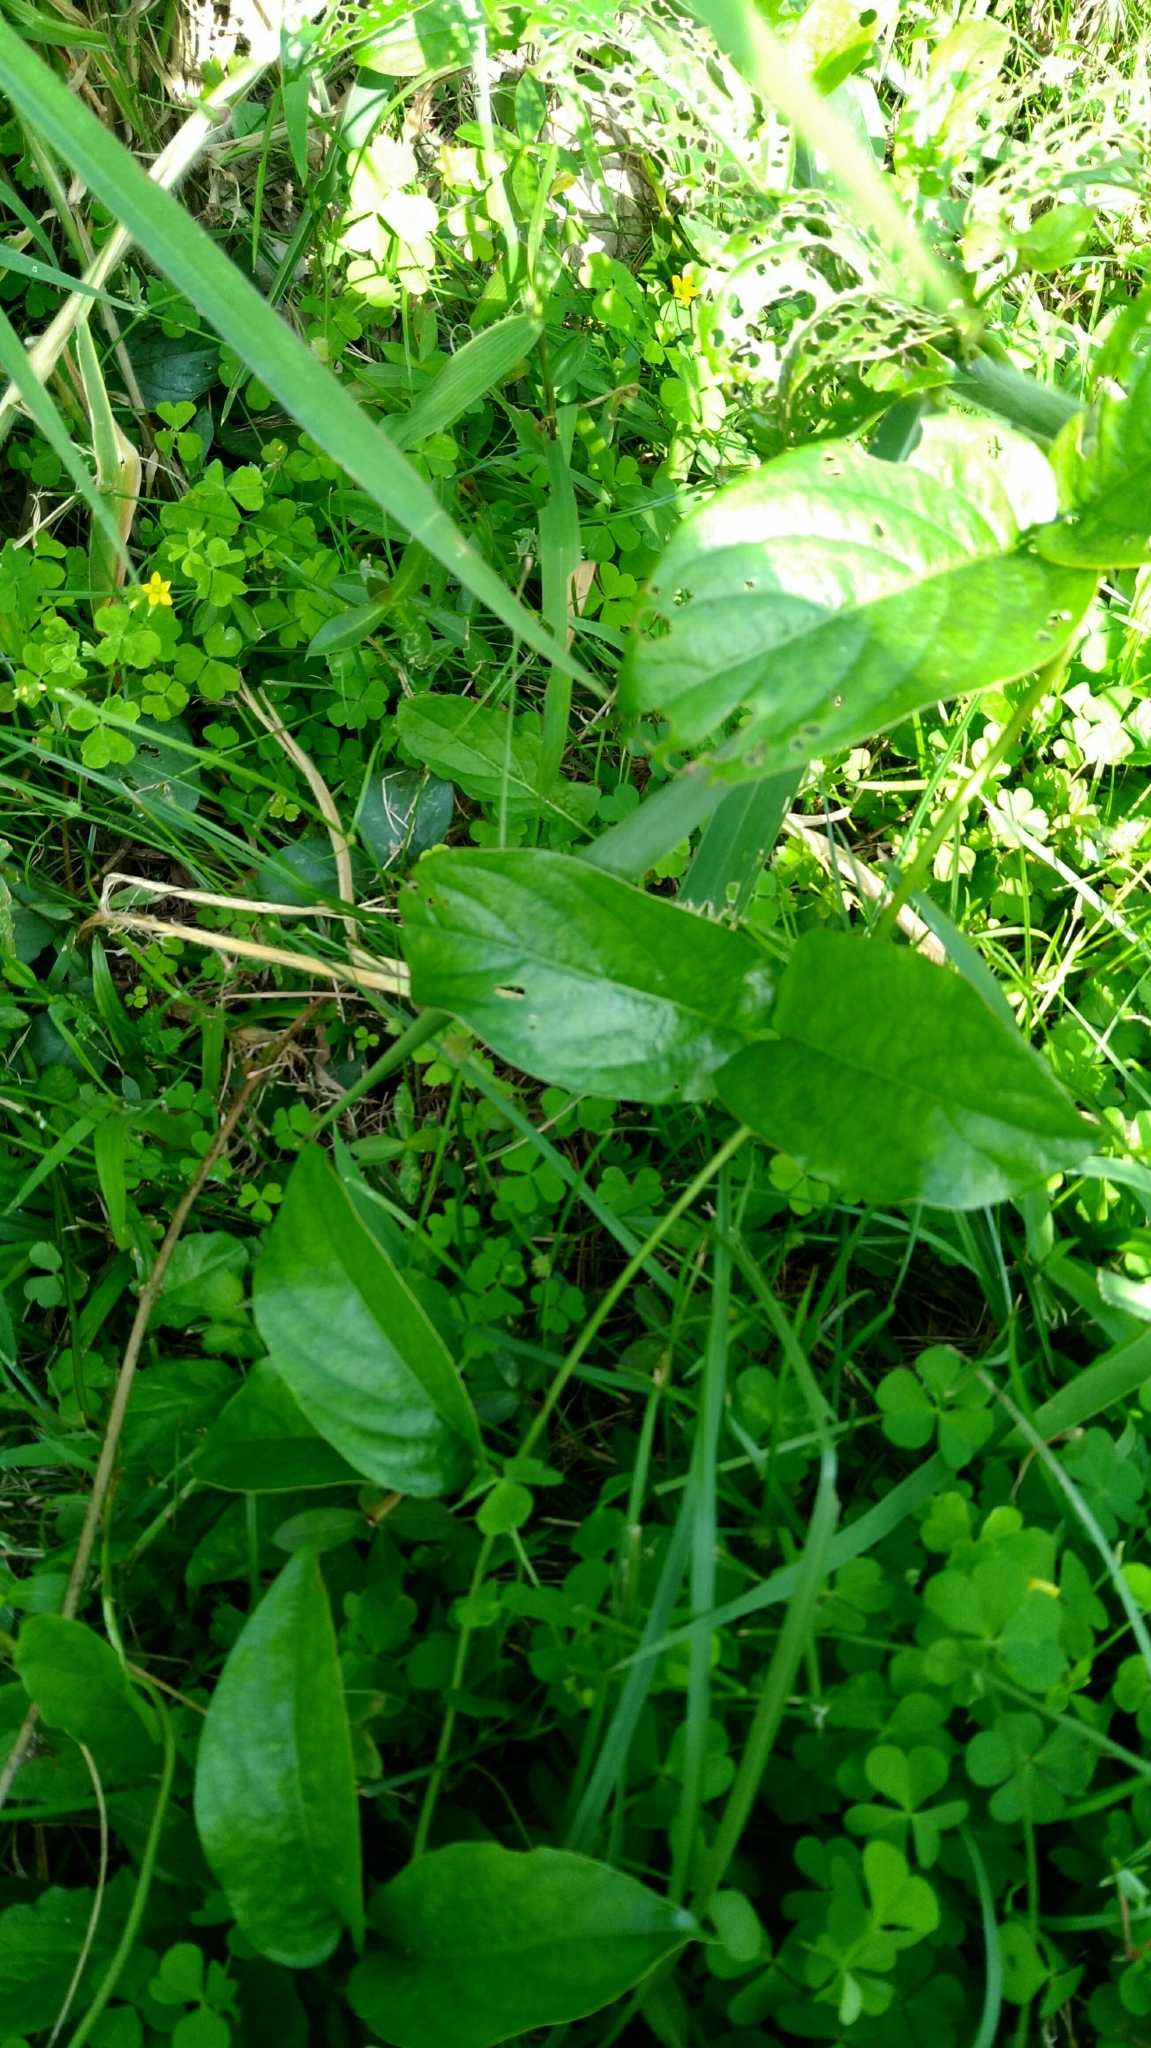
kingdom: Plantae
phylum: Tracheophyta
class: Magnoliopsida
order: Gentianales
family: Rubiaceae
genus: Paederia
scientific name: Paederia foetida
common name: Stinkvine
